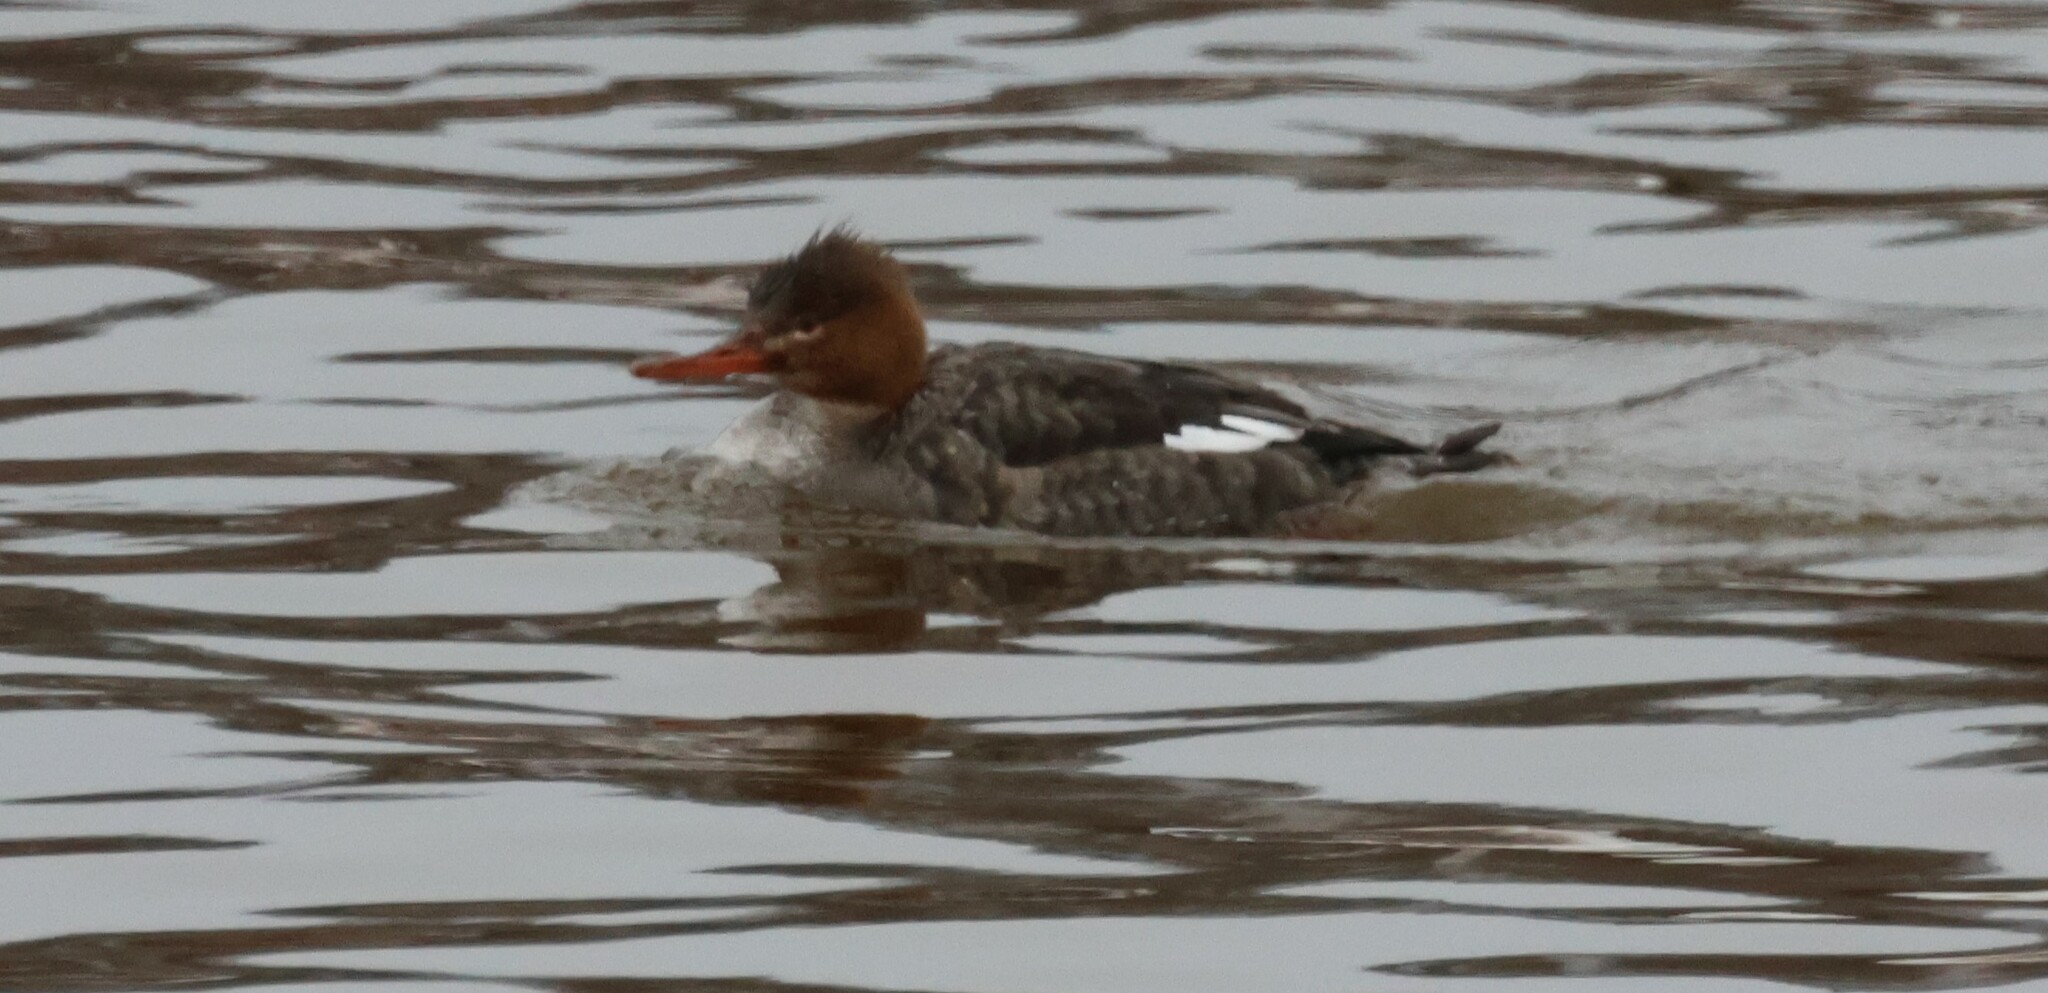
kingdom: Animalia
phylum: Chordata
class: Aves
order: Anseriformes
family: Anatidae
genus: Mergus
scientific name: Mergus serrator
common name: Red-breasted merganser
